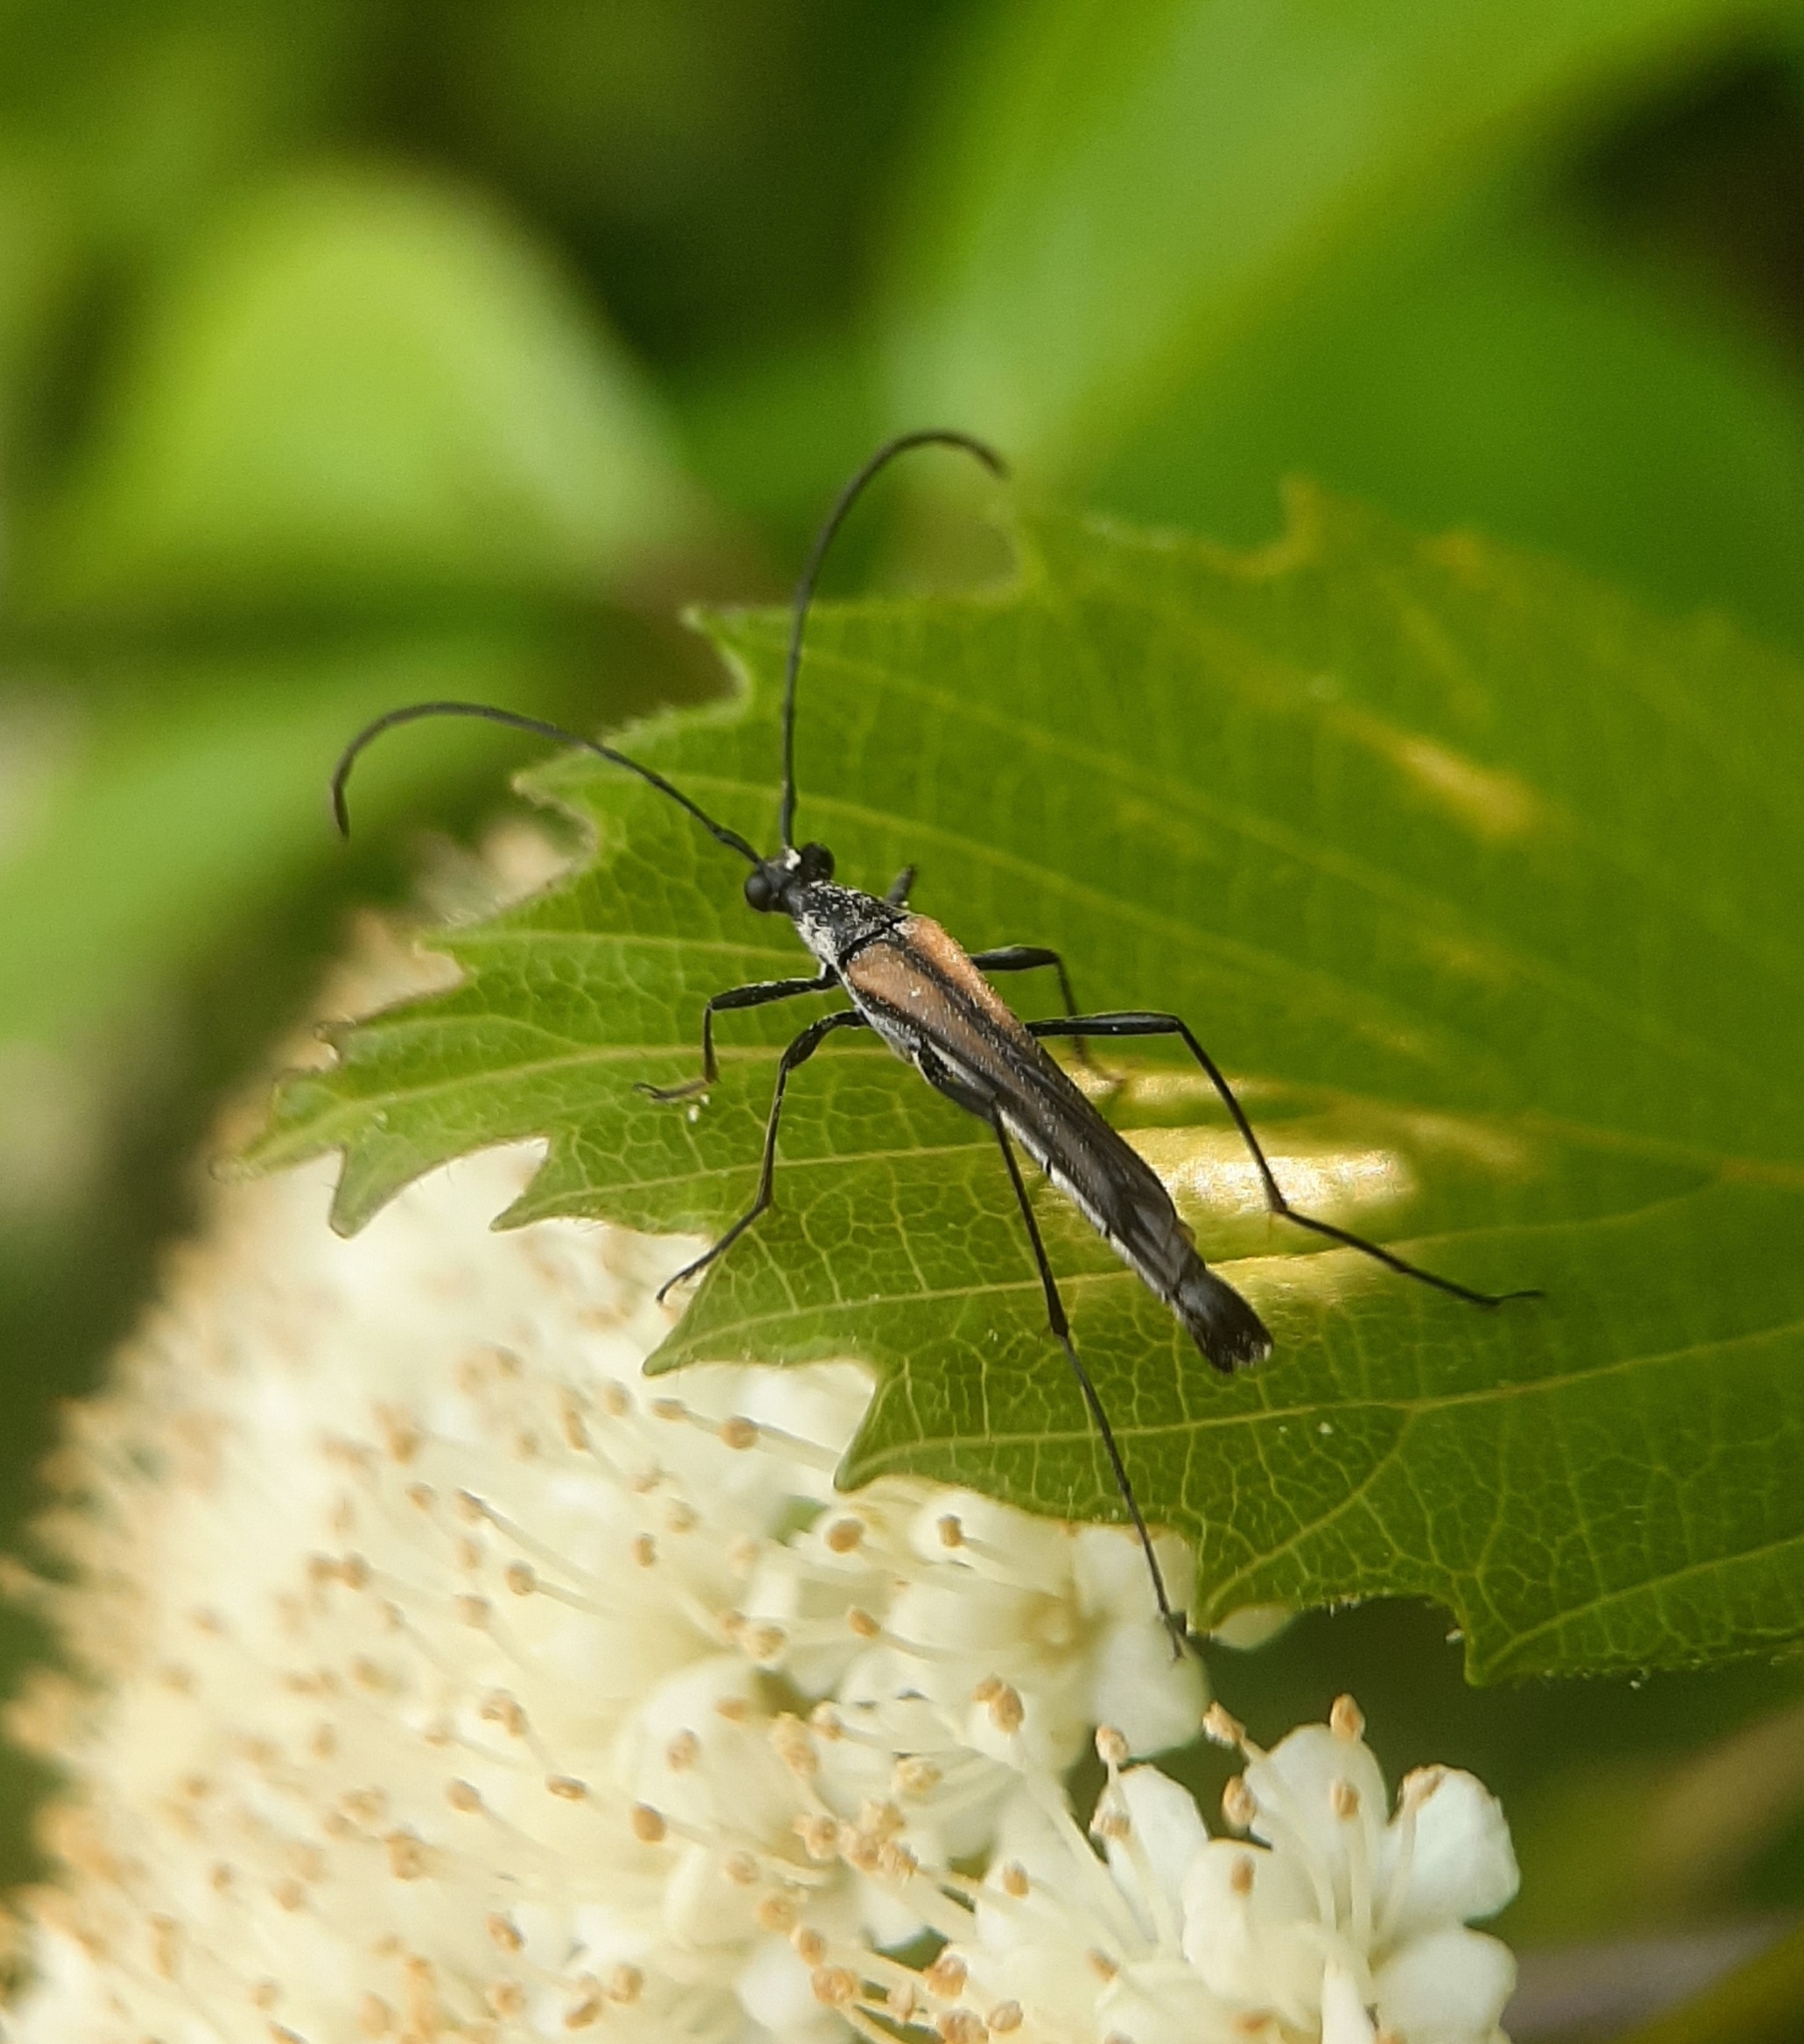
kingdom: Animalia
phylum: Arthropoda
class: Insecta
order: Coleoptera
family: Cerambycidae
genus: Strangalia
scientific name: Strangalia acuminata
